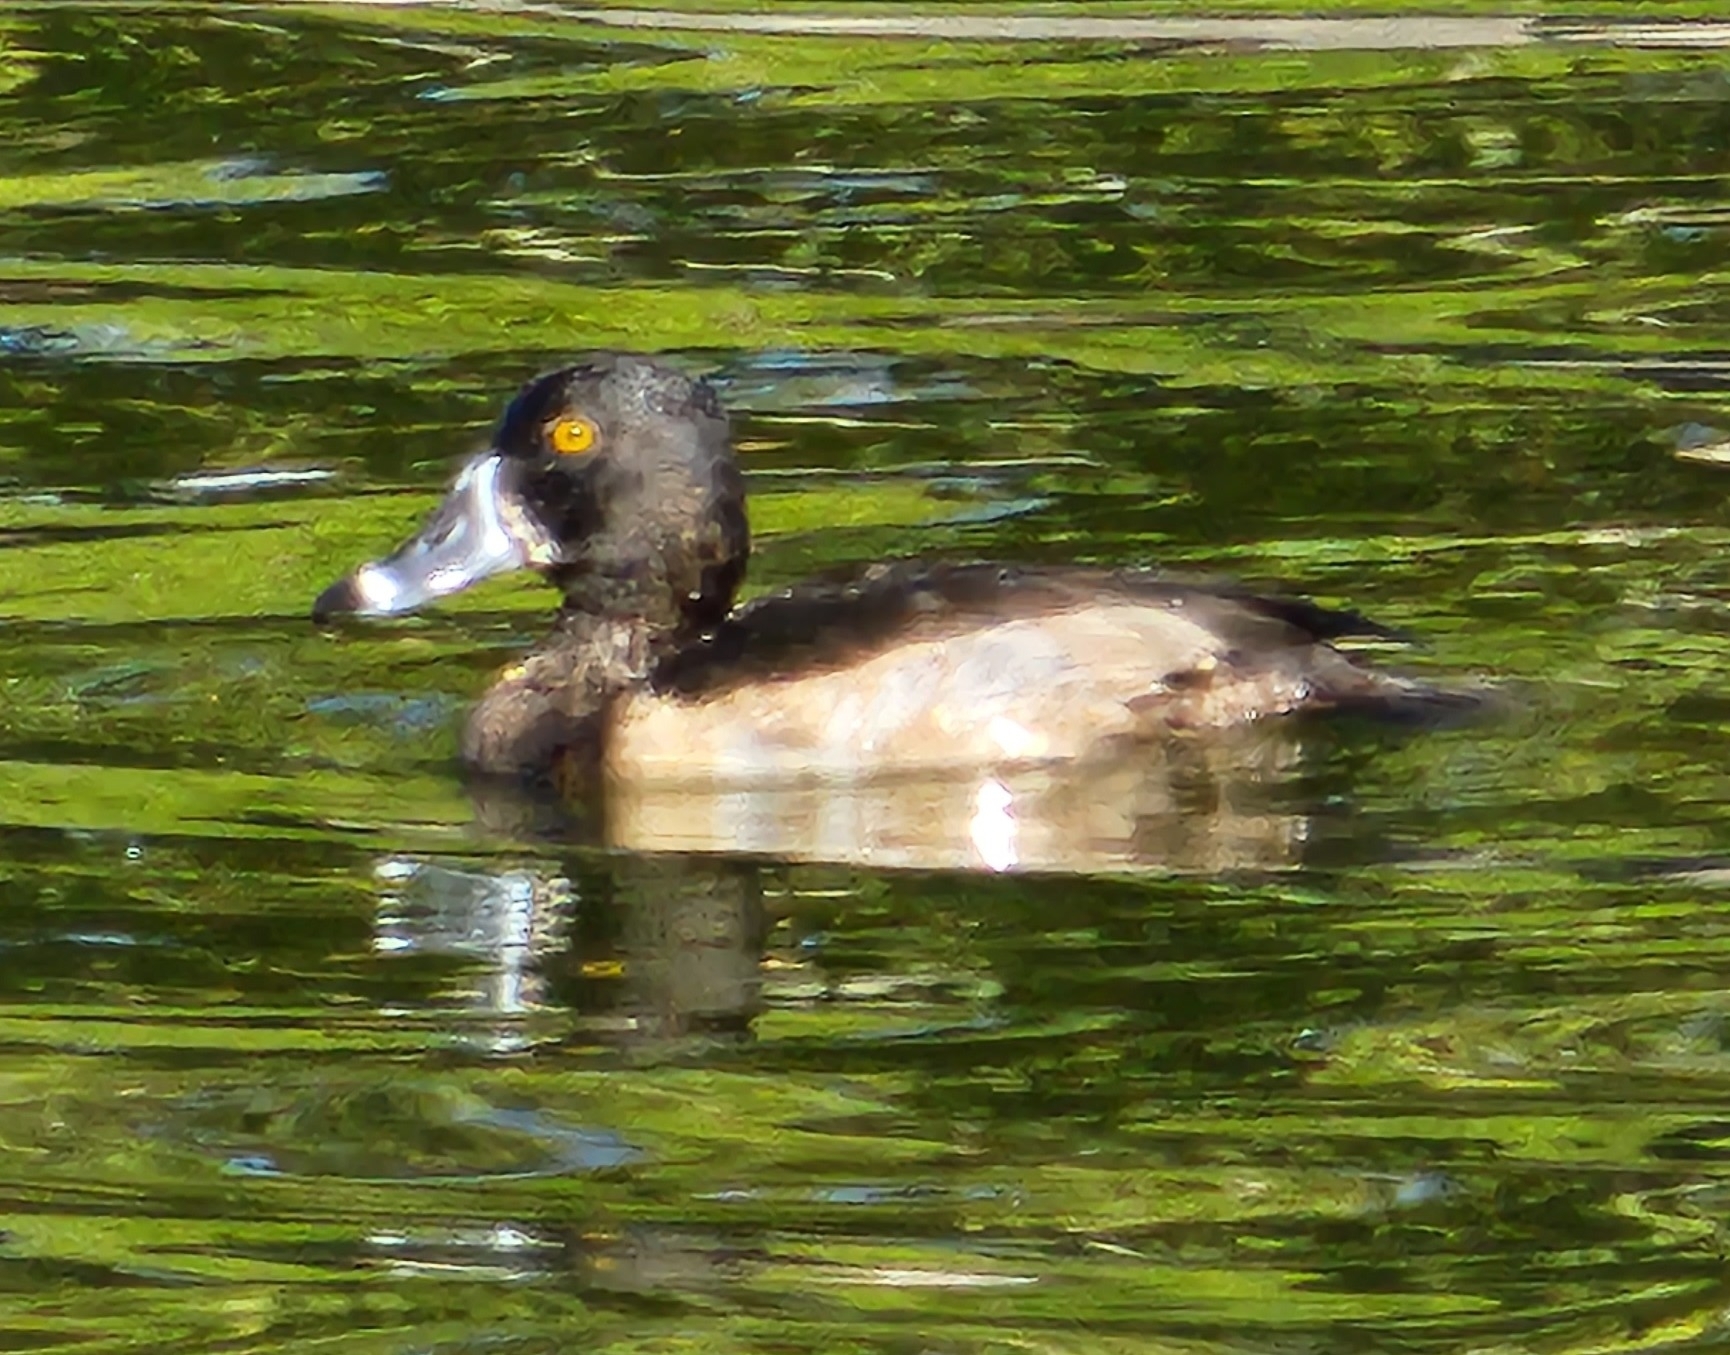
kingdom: Animalia
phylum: Chordata
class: Aves
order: Anseriformes
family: Anatidae
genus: Aythya
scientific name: Aythya collaris
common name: Ring-necked duck
